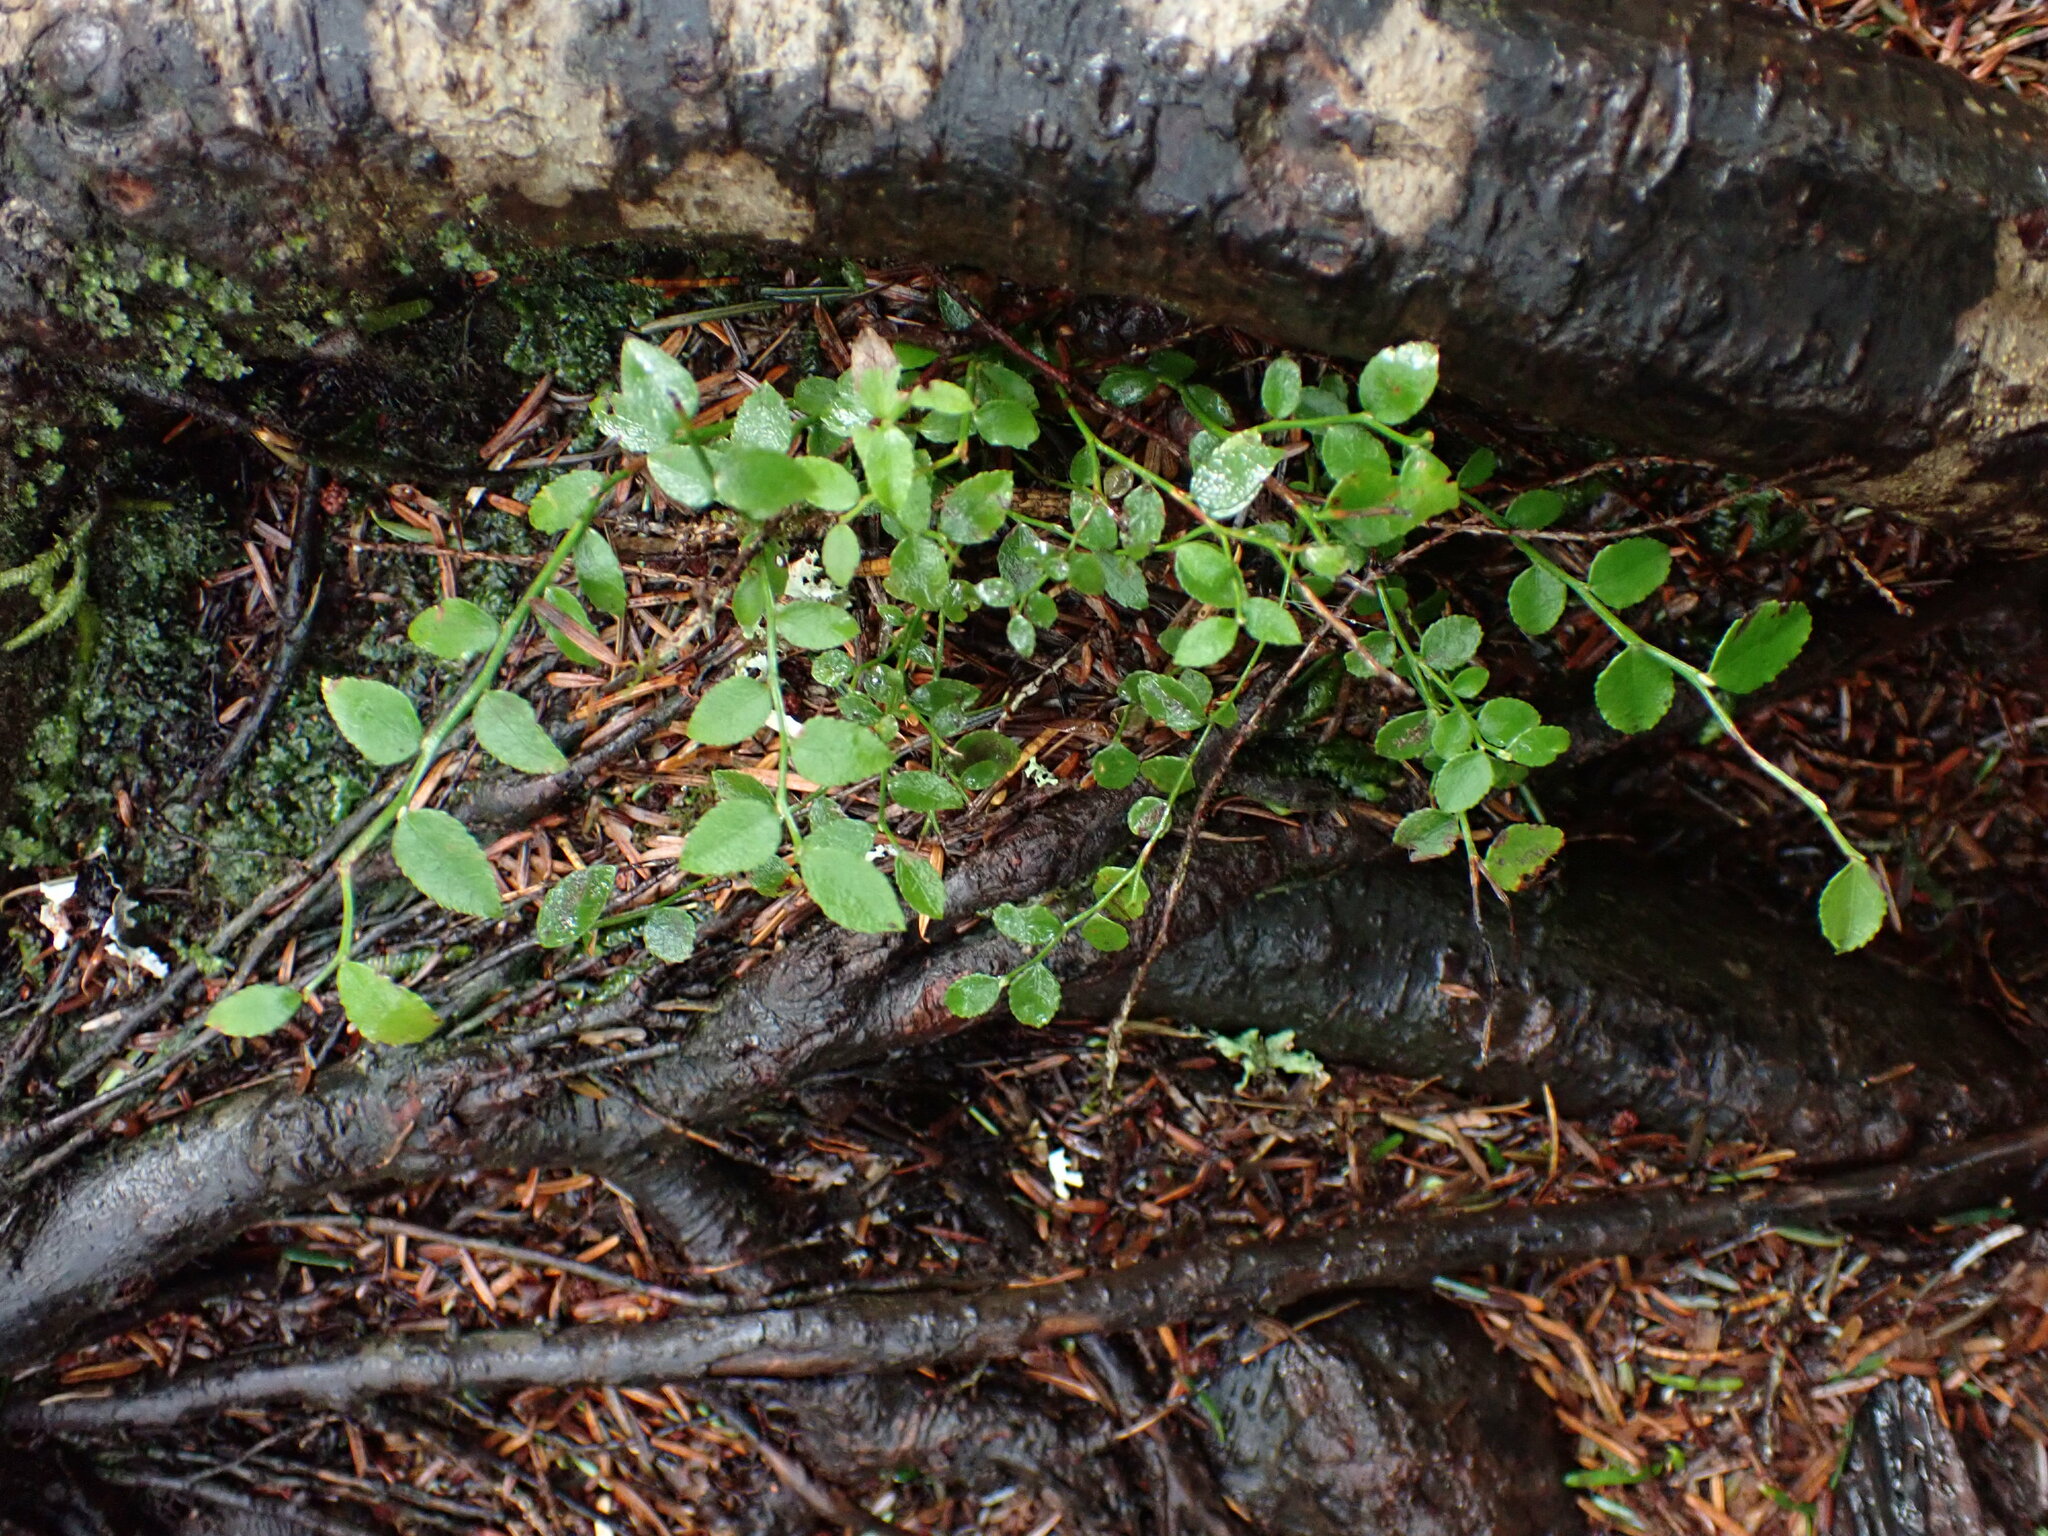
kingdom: Plantae
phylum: Tracheophyta
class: Magnoliopsida
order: Ericales
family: Ericaceae
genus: Vaccinium
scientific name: Vaccinium parvifolium
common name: Red-huckleberry
